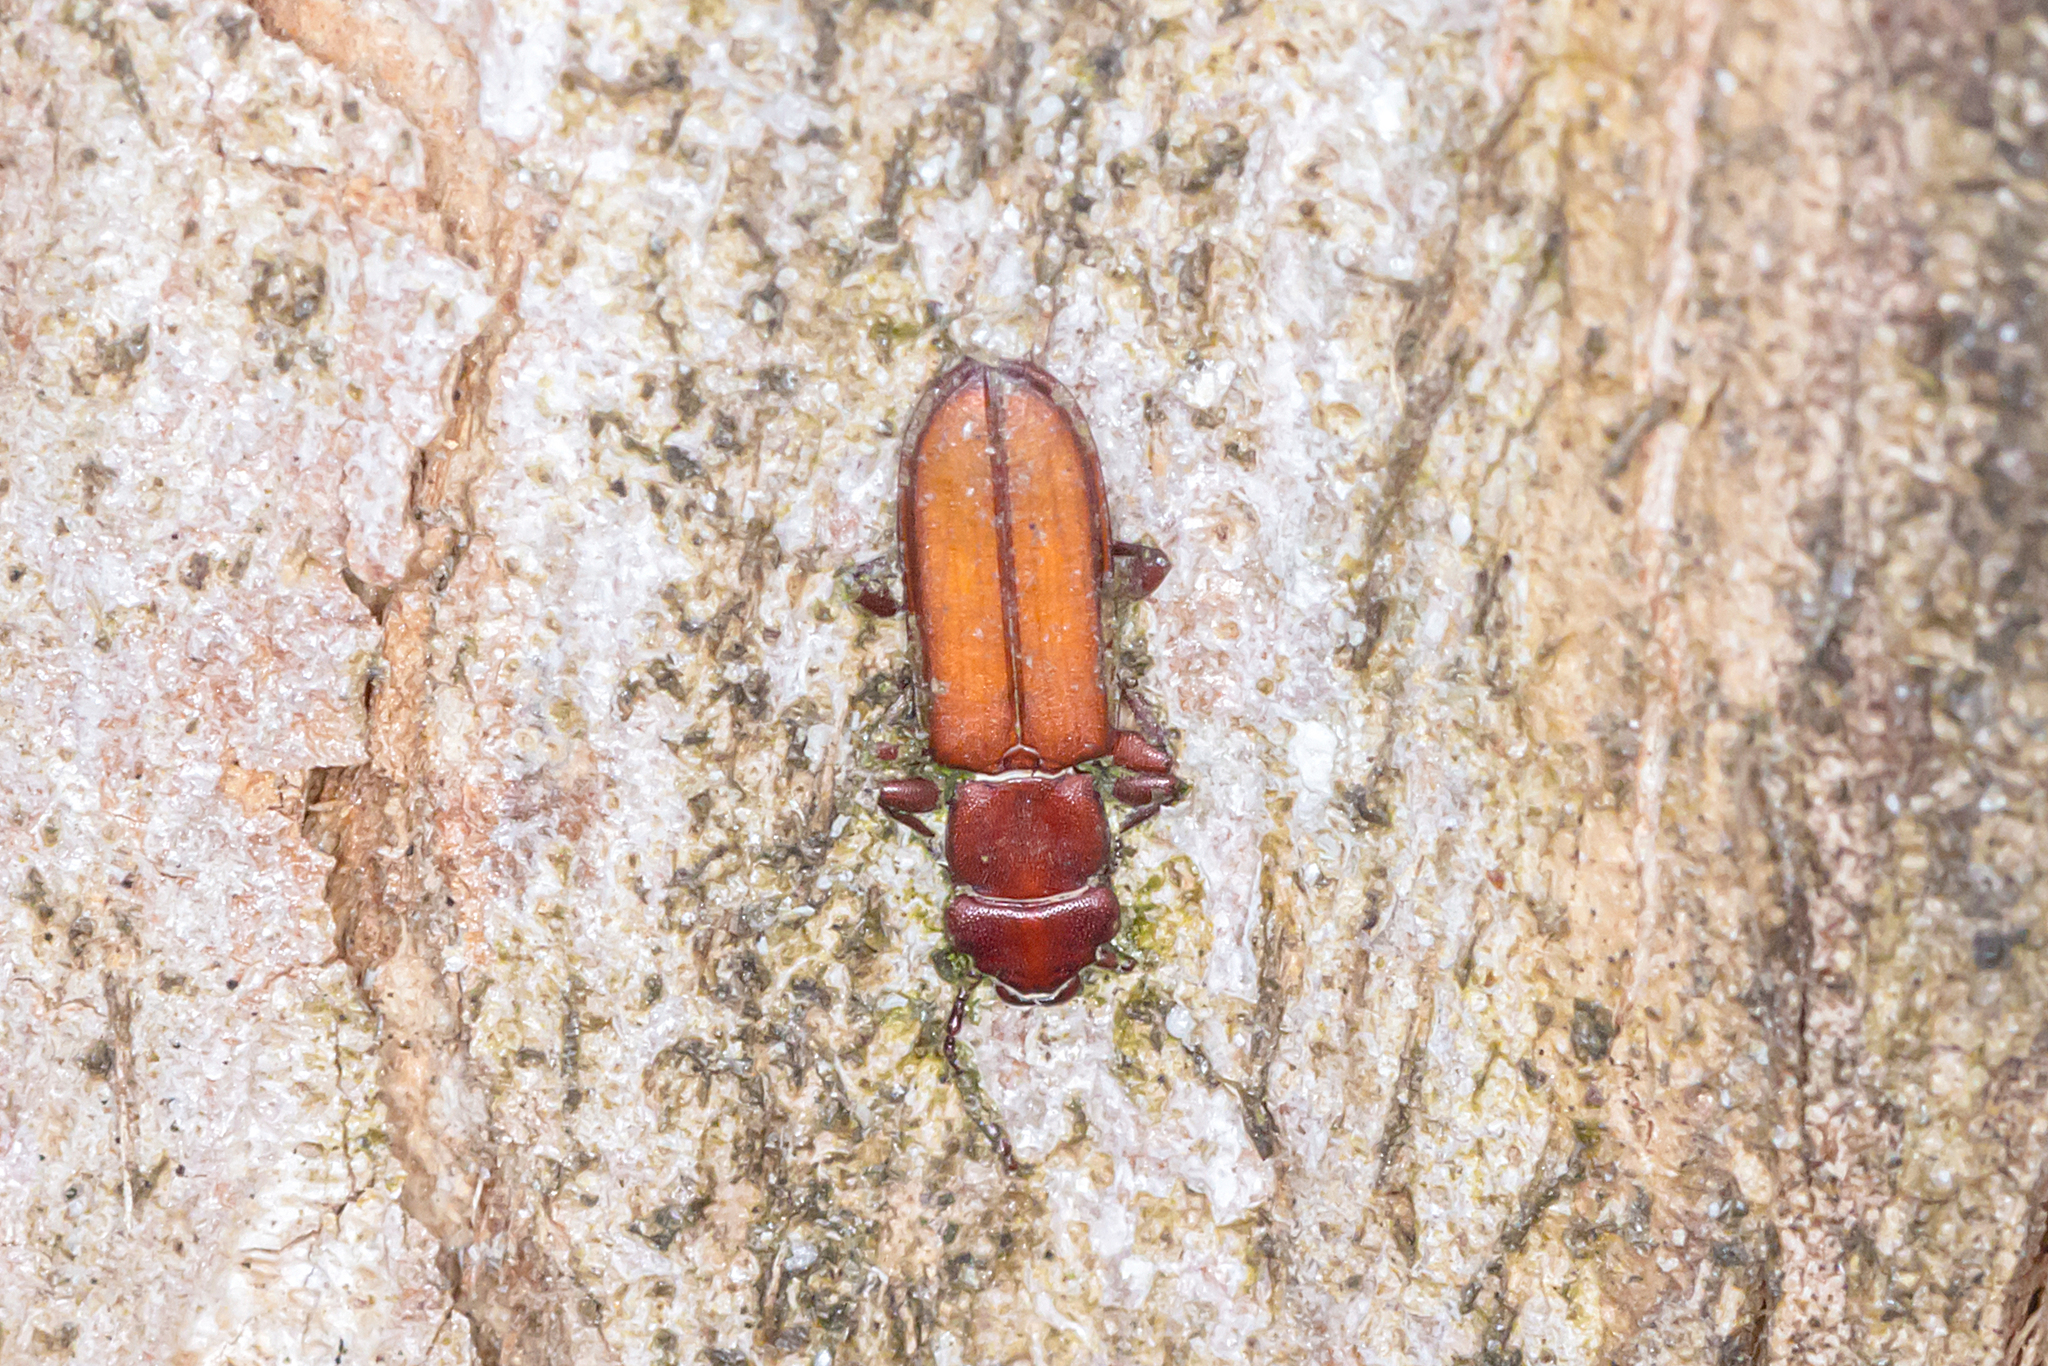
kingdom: Animalia
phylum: Arthropoda
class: Insecta
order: Coleoptera
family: Cucujidae
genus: Platisus
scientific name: Platisus
